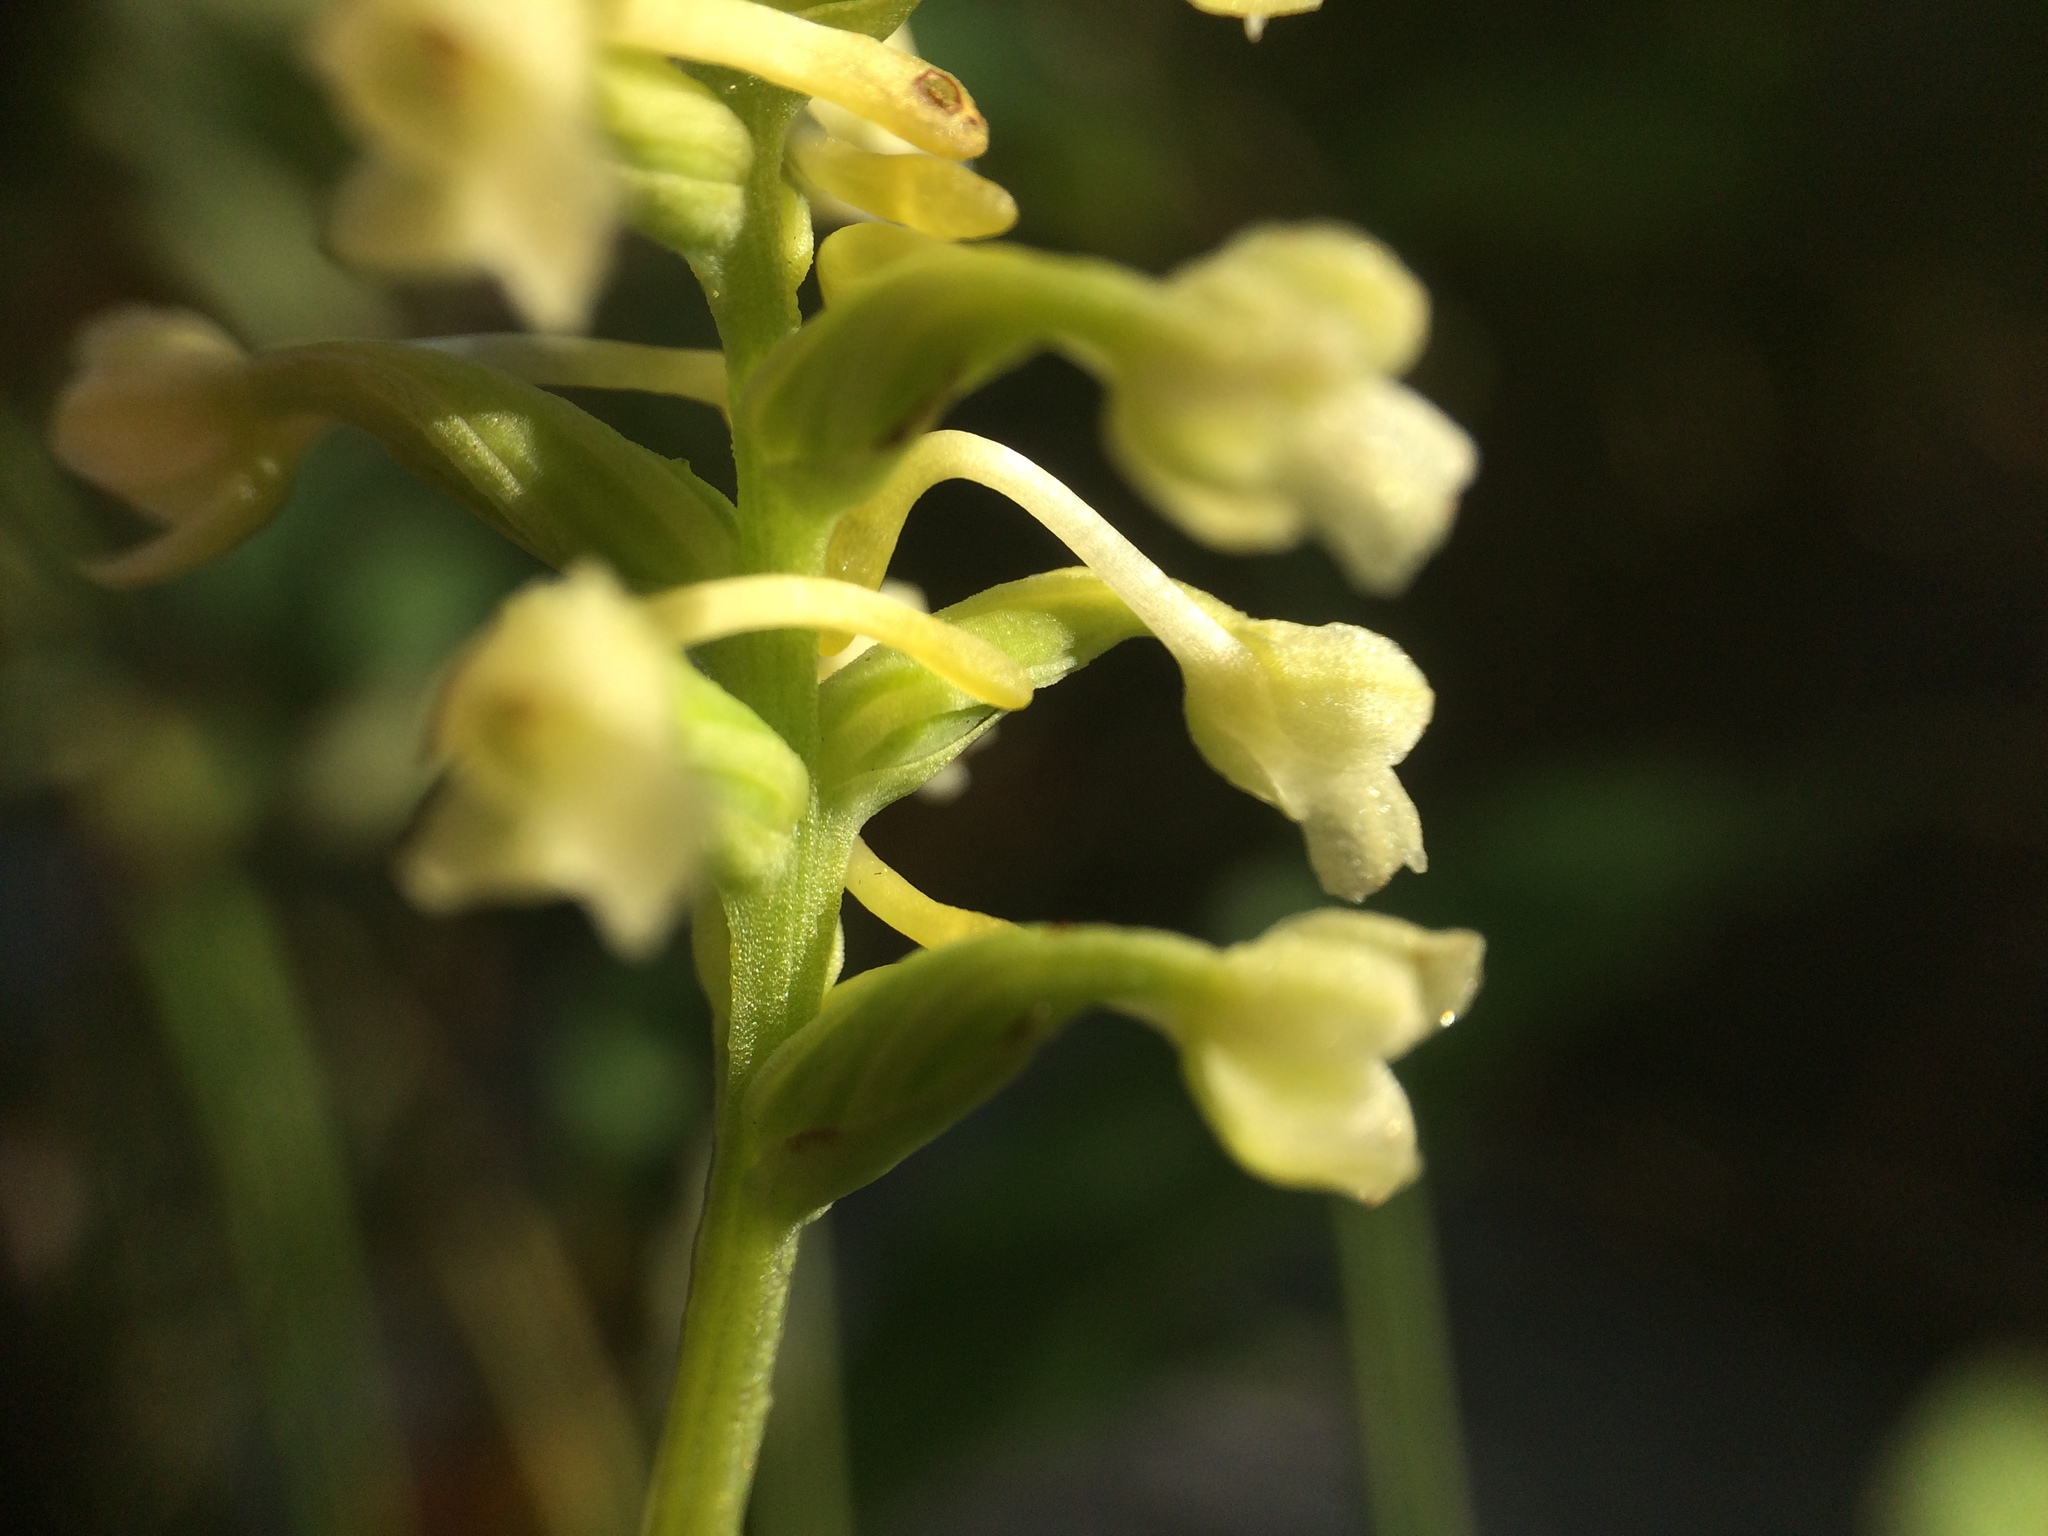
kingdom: Plantae
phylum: Tracheophyta
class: Liliopsida
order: Asparagales
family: Orchidaceae
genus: Platanthera
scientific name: Platanthera clavellata
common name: Club-spur orchid
